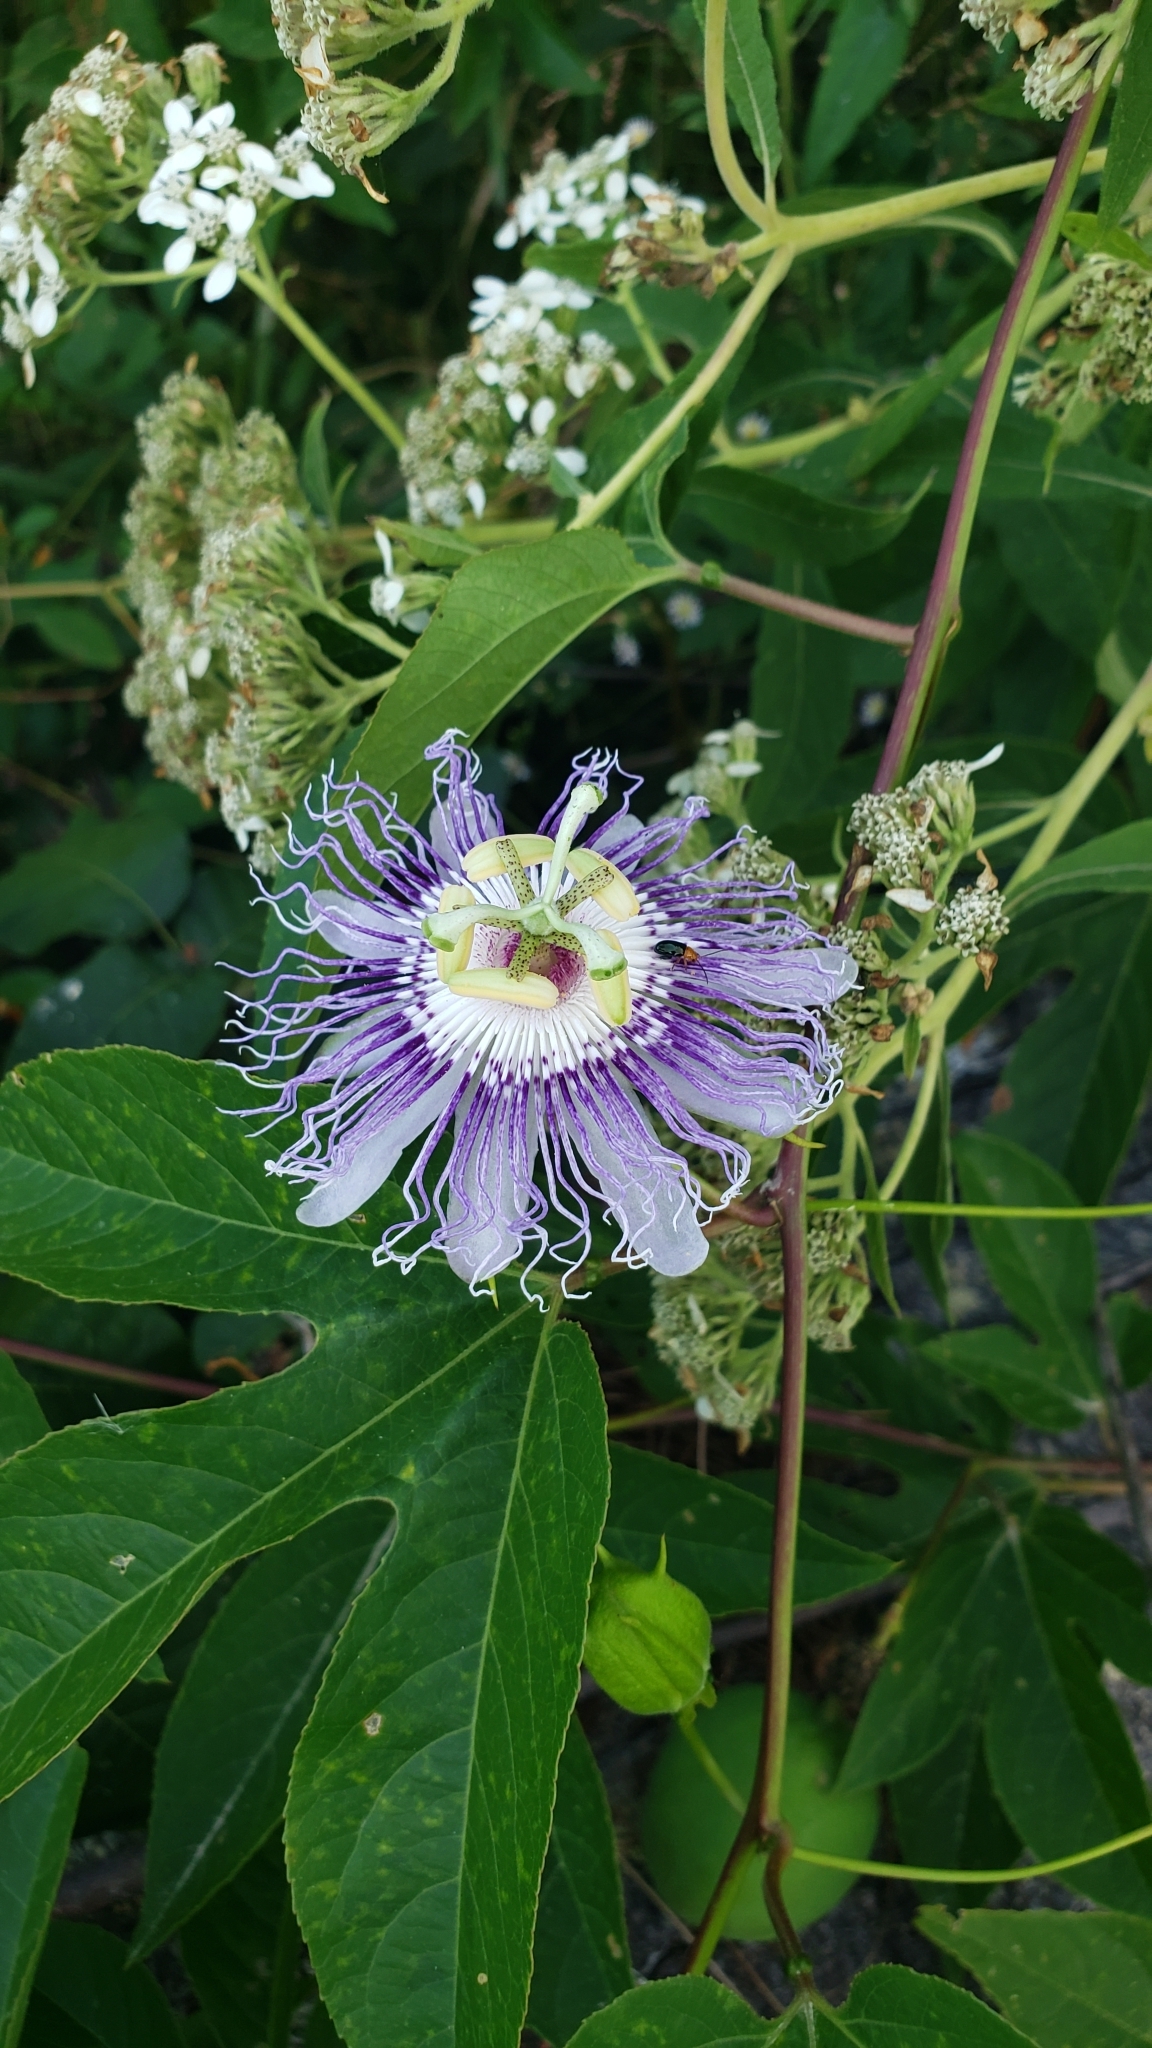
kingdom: Plantae
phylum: Tracheophyta
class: Magnoliopsida
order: Malpighiales
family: Passifloraceae
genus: Passiflora
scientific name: Passiflora incarnata
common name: Apricot-vine
